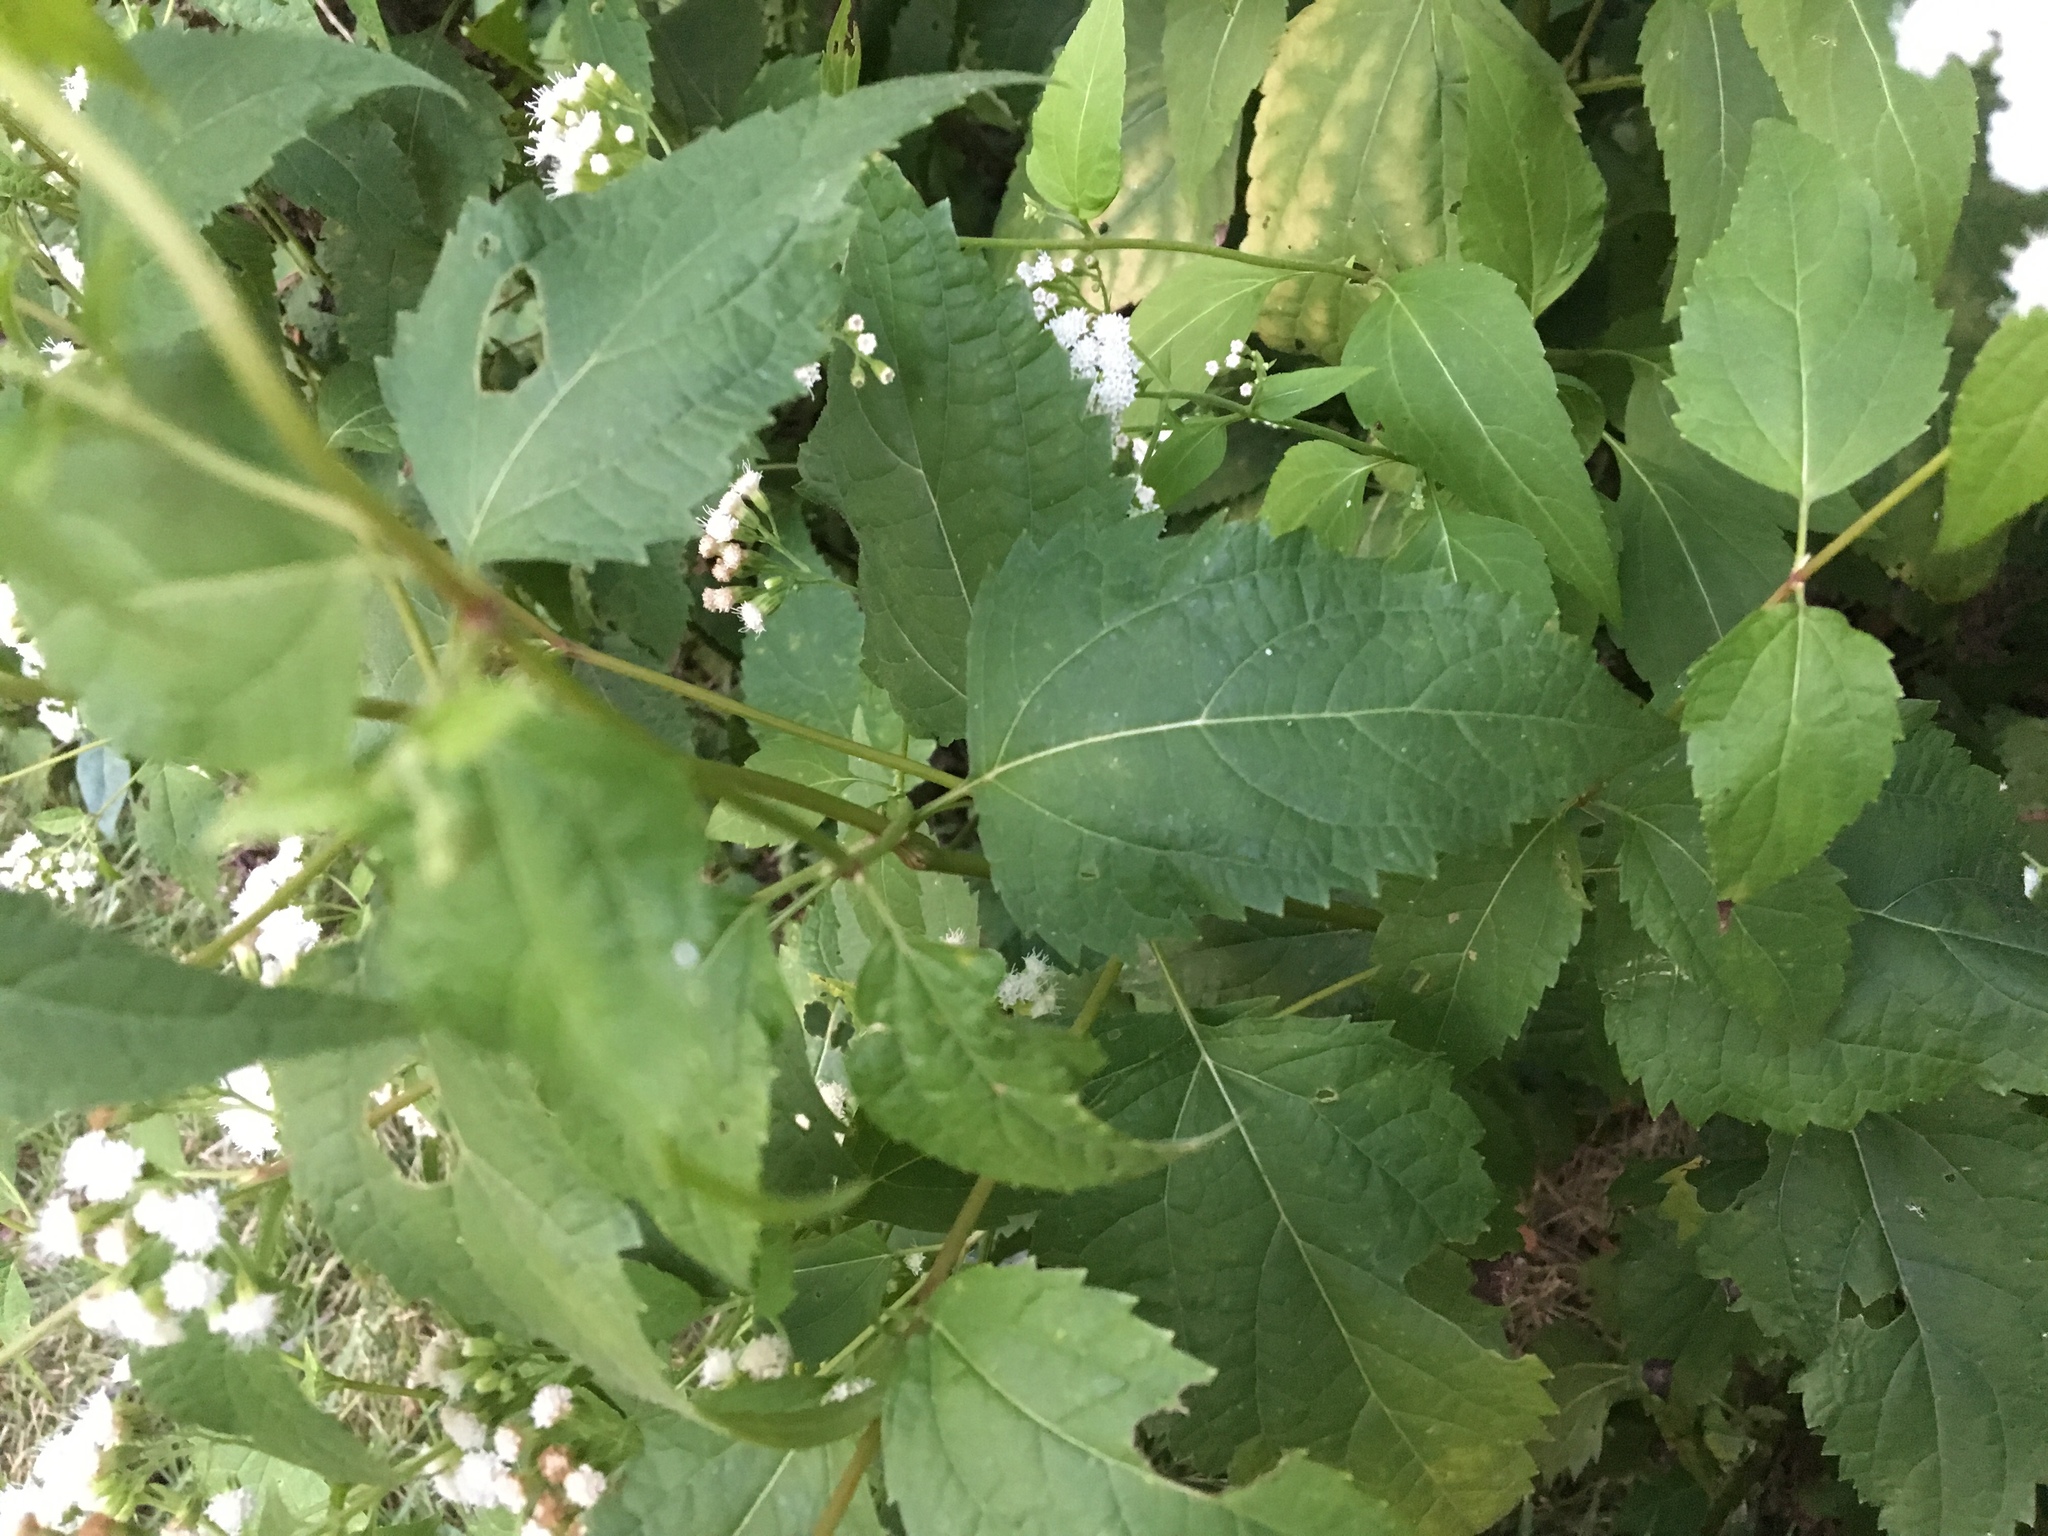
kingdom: Plantae
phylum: Tracheophyta
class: Magnoliopsida
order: Asterales
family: Asteraceae
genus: Ageratina
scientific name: Ageratina altissima
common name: White snakeroot
